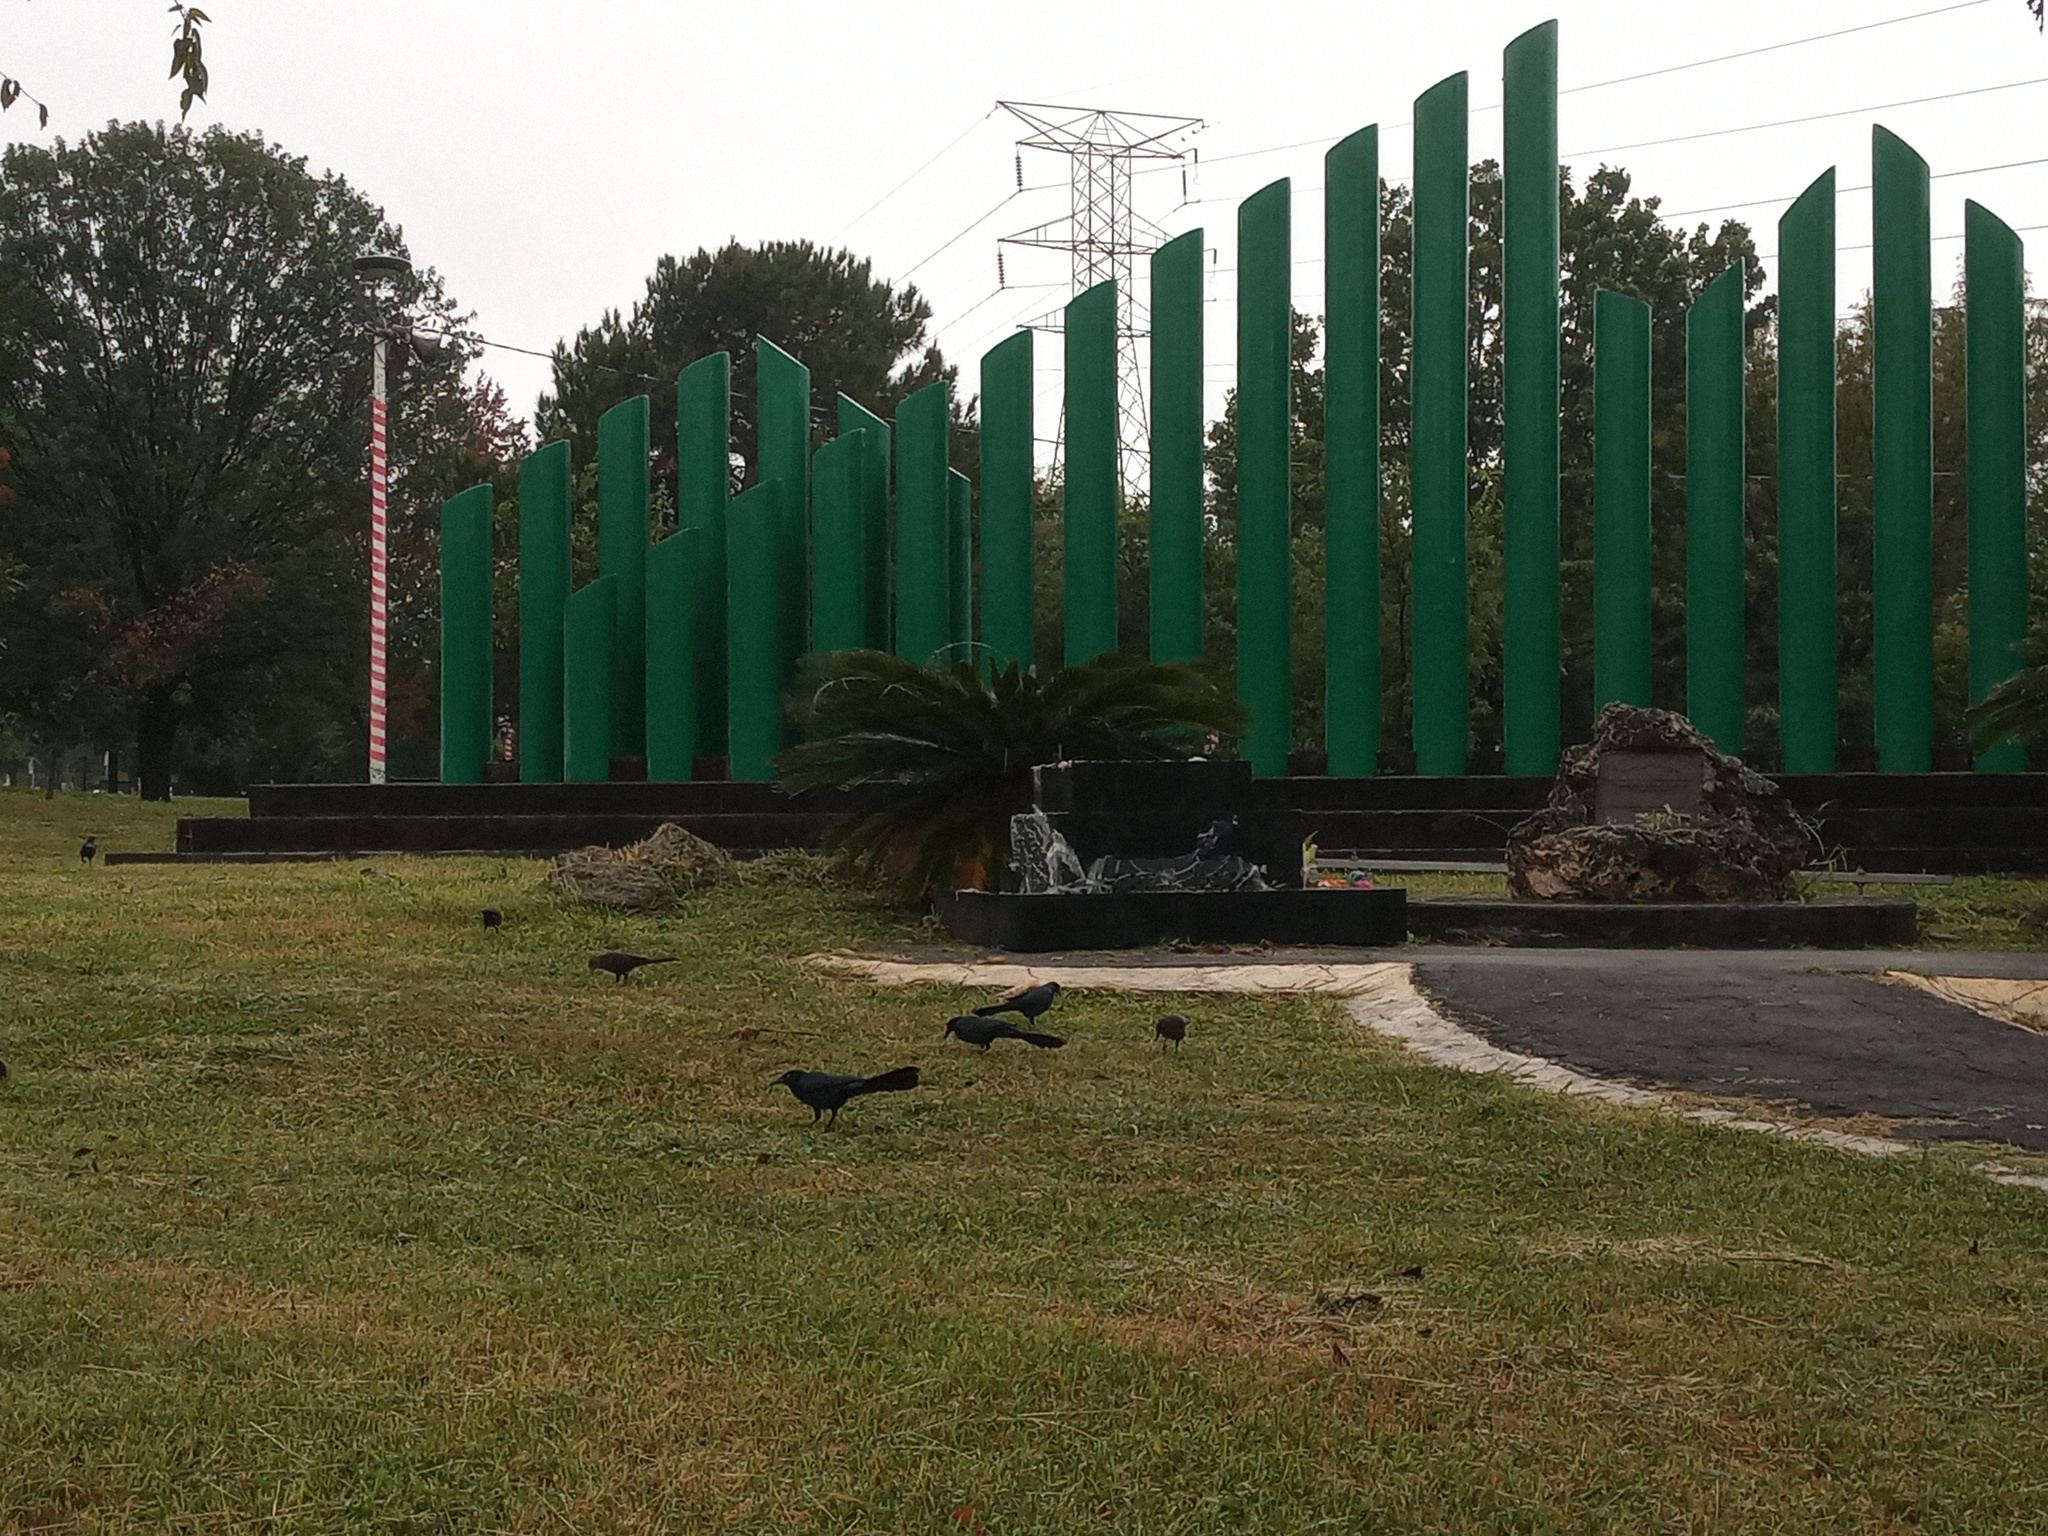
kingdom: Animalia
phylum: Chordata
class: Aves
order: Passeriformes
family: Icteridae
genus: Quiscalus
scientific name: Quiscalus mexicanus
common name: Great-tailed grackle
